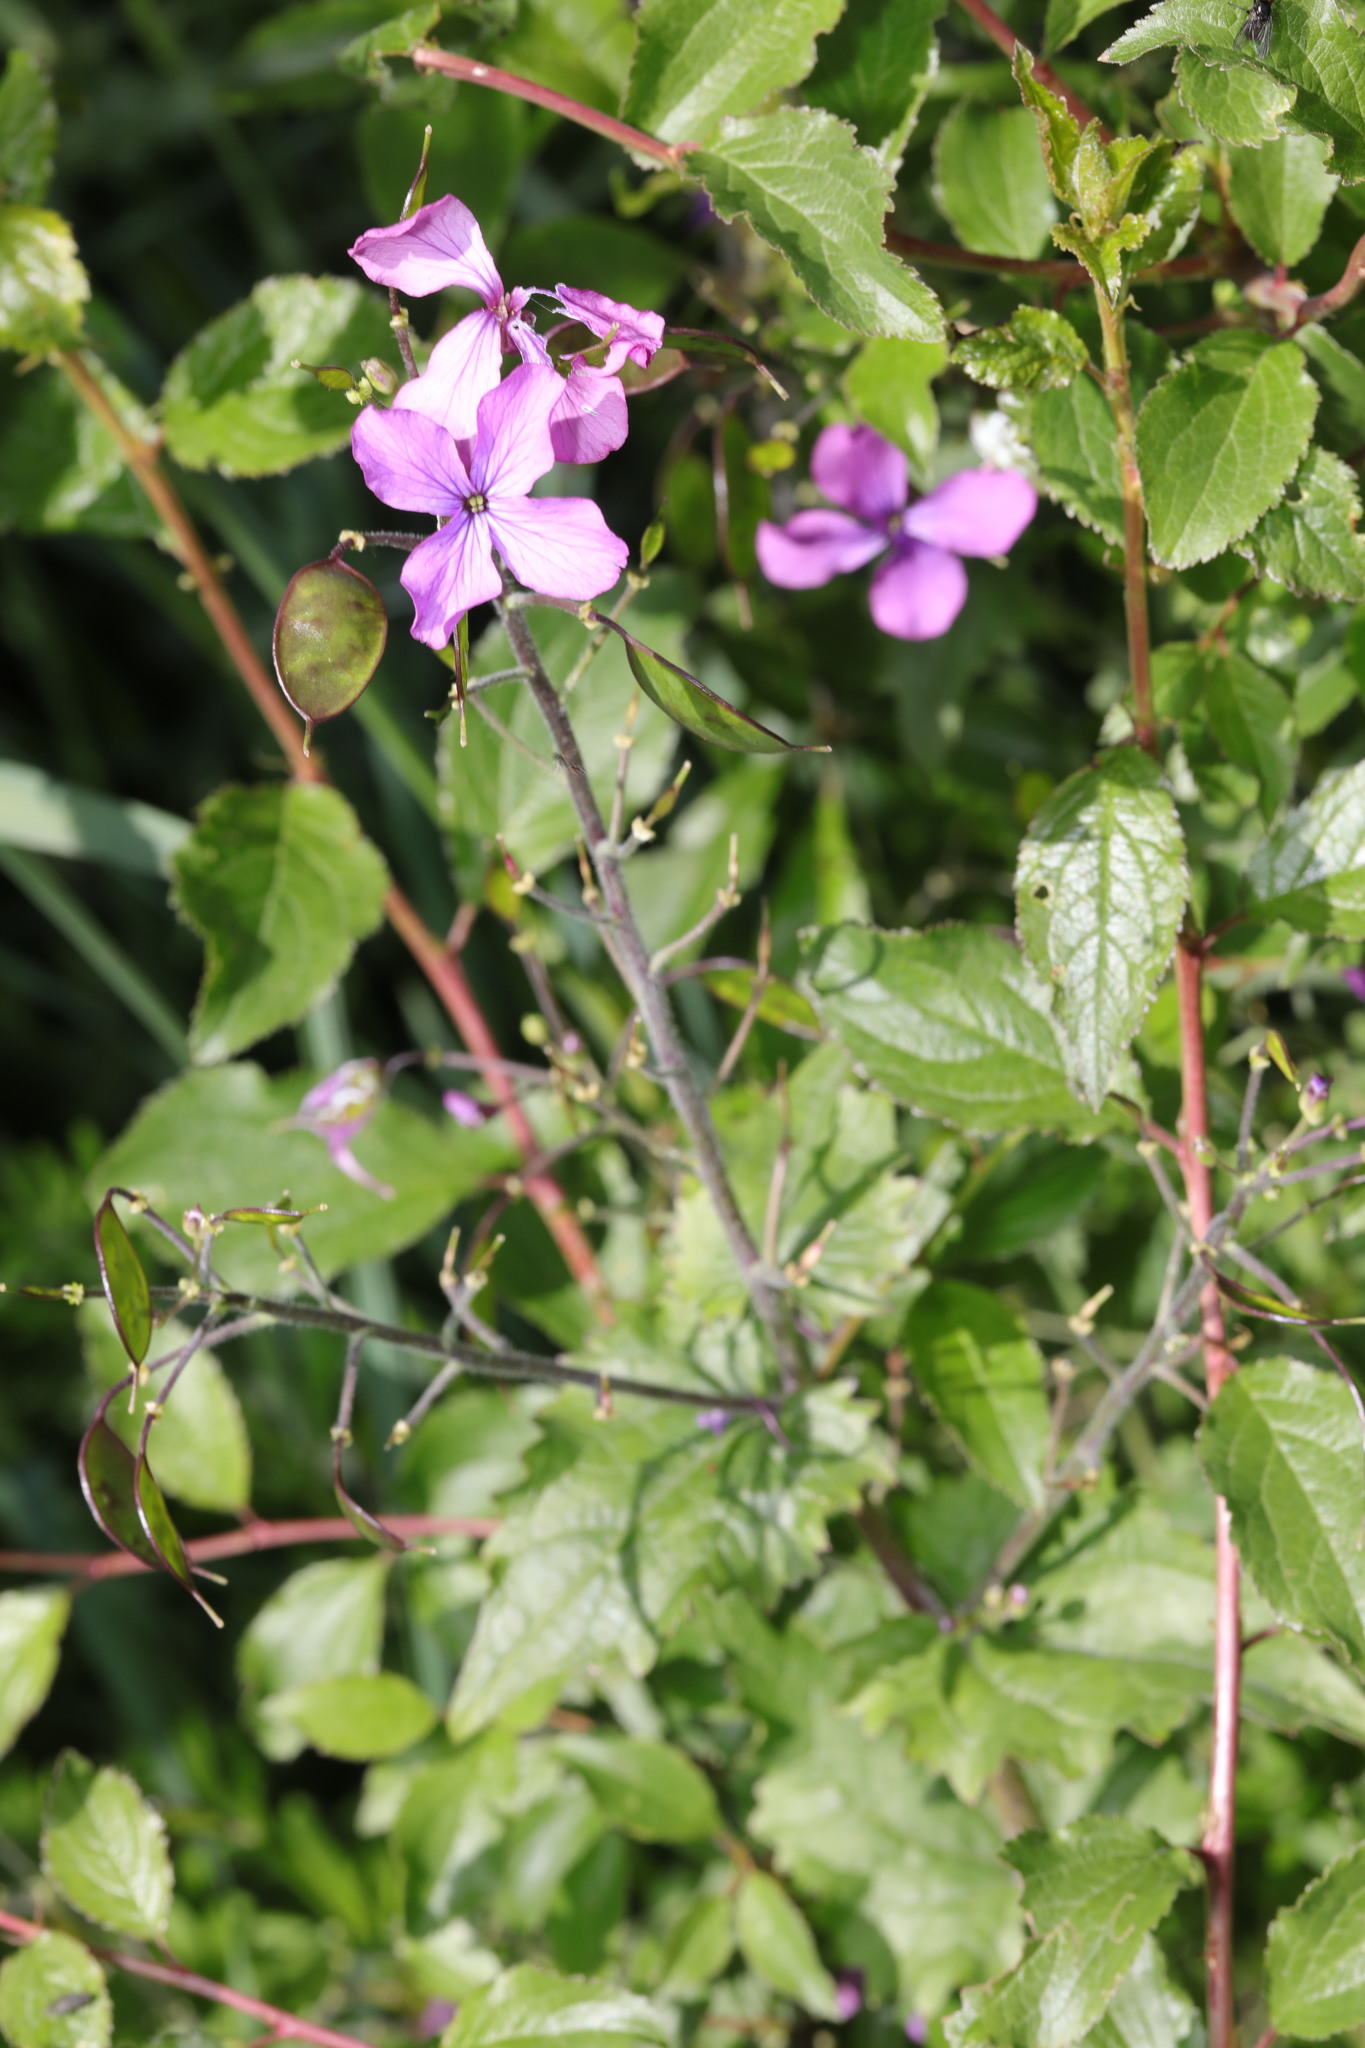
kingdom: Plantae
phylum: Tracheophyta
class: Magnoliopsida
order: Brassicales
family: Brassicaceae
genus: Lunaria
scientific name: Lunaria annua
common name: Honesty
